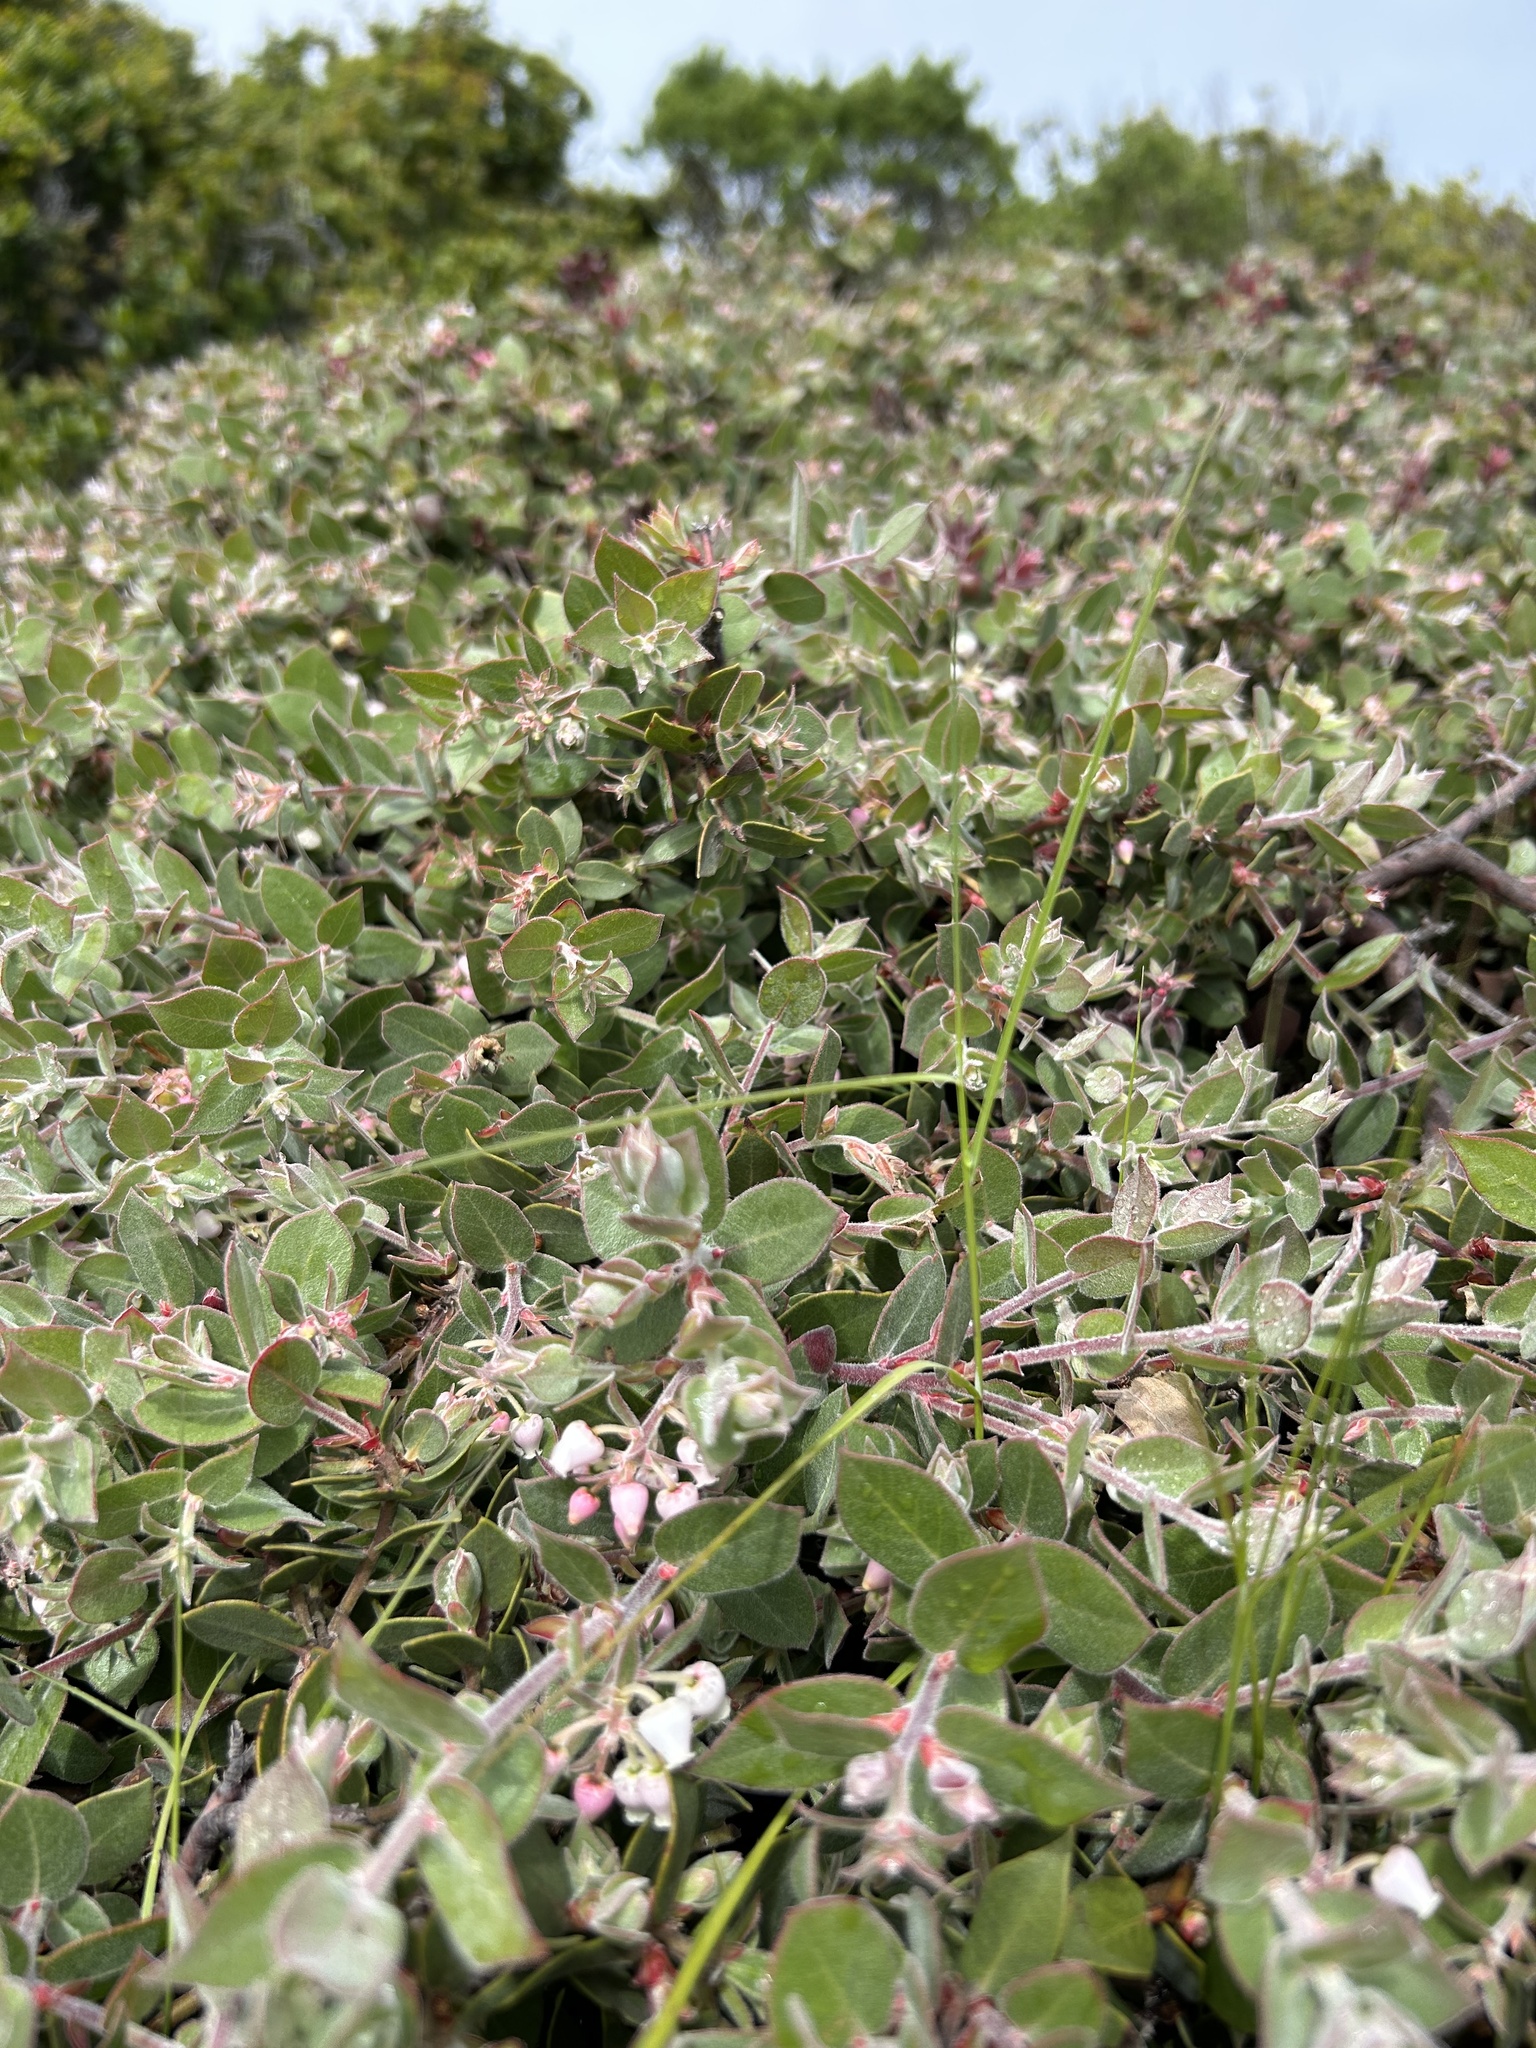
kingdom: Plantae
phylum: Tracheophyta
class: Magnoliopsida
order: Ericales
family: Ericaceae
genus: Arctostaphylos
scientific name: Arctostaphylos cruzensis
